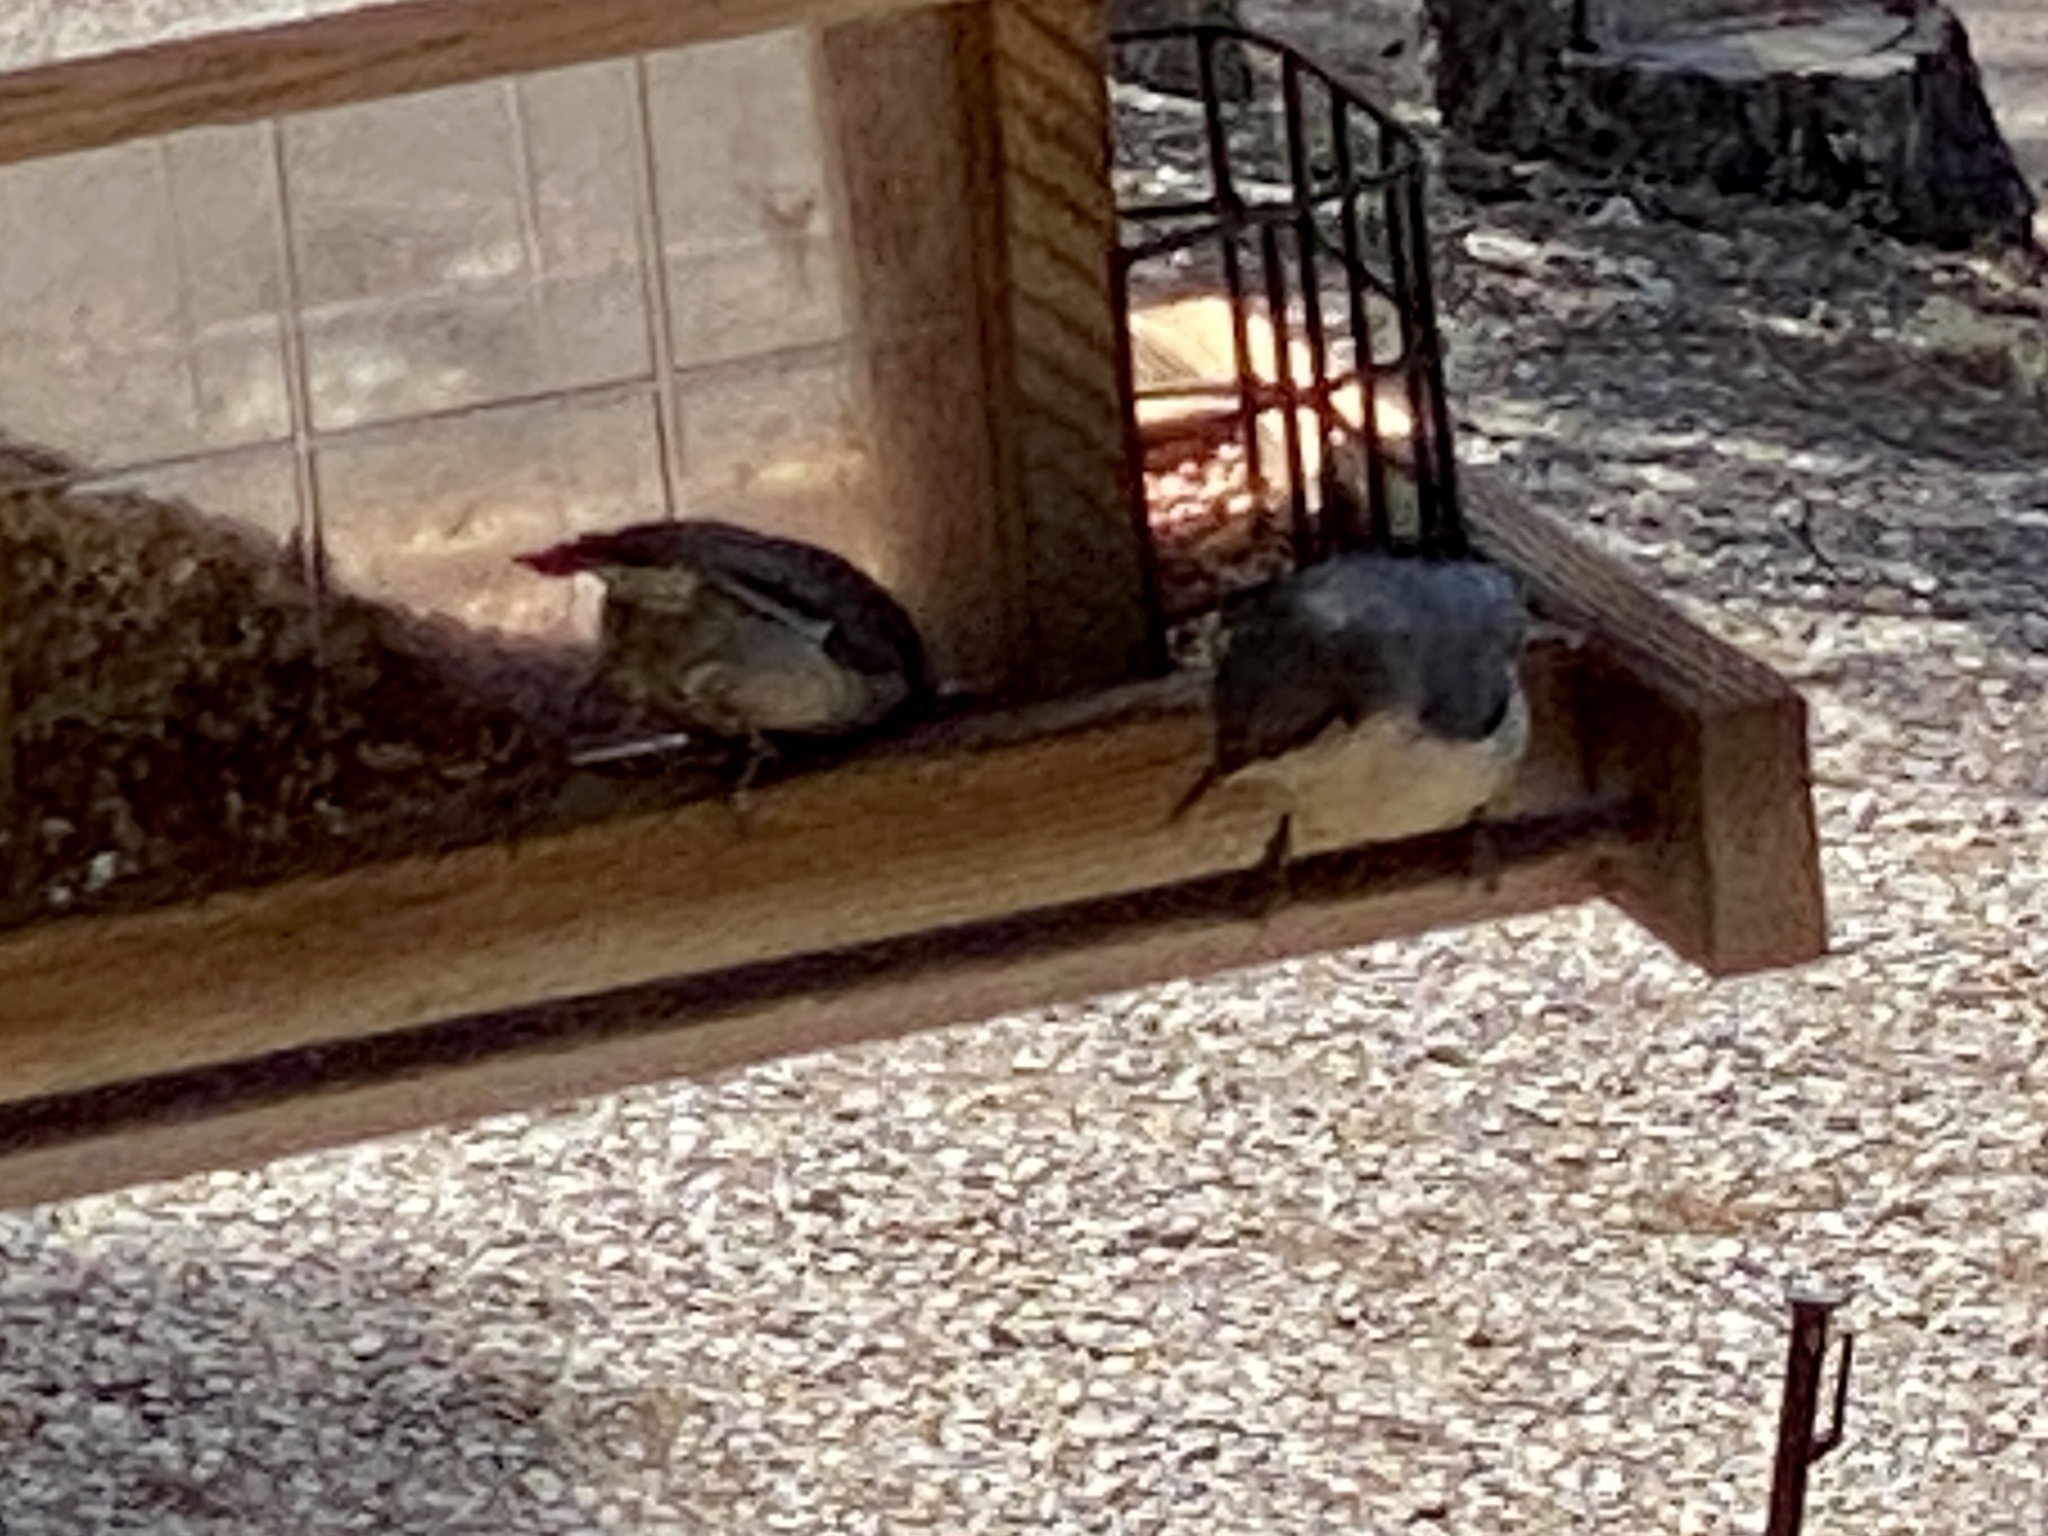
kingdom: Animalia
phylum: Chordata
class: Aves
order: Passeriformes
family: Sittidae
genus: Sitta
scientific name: Sitta pygmaea
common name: Pygmy nuthatch
